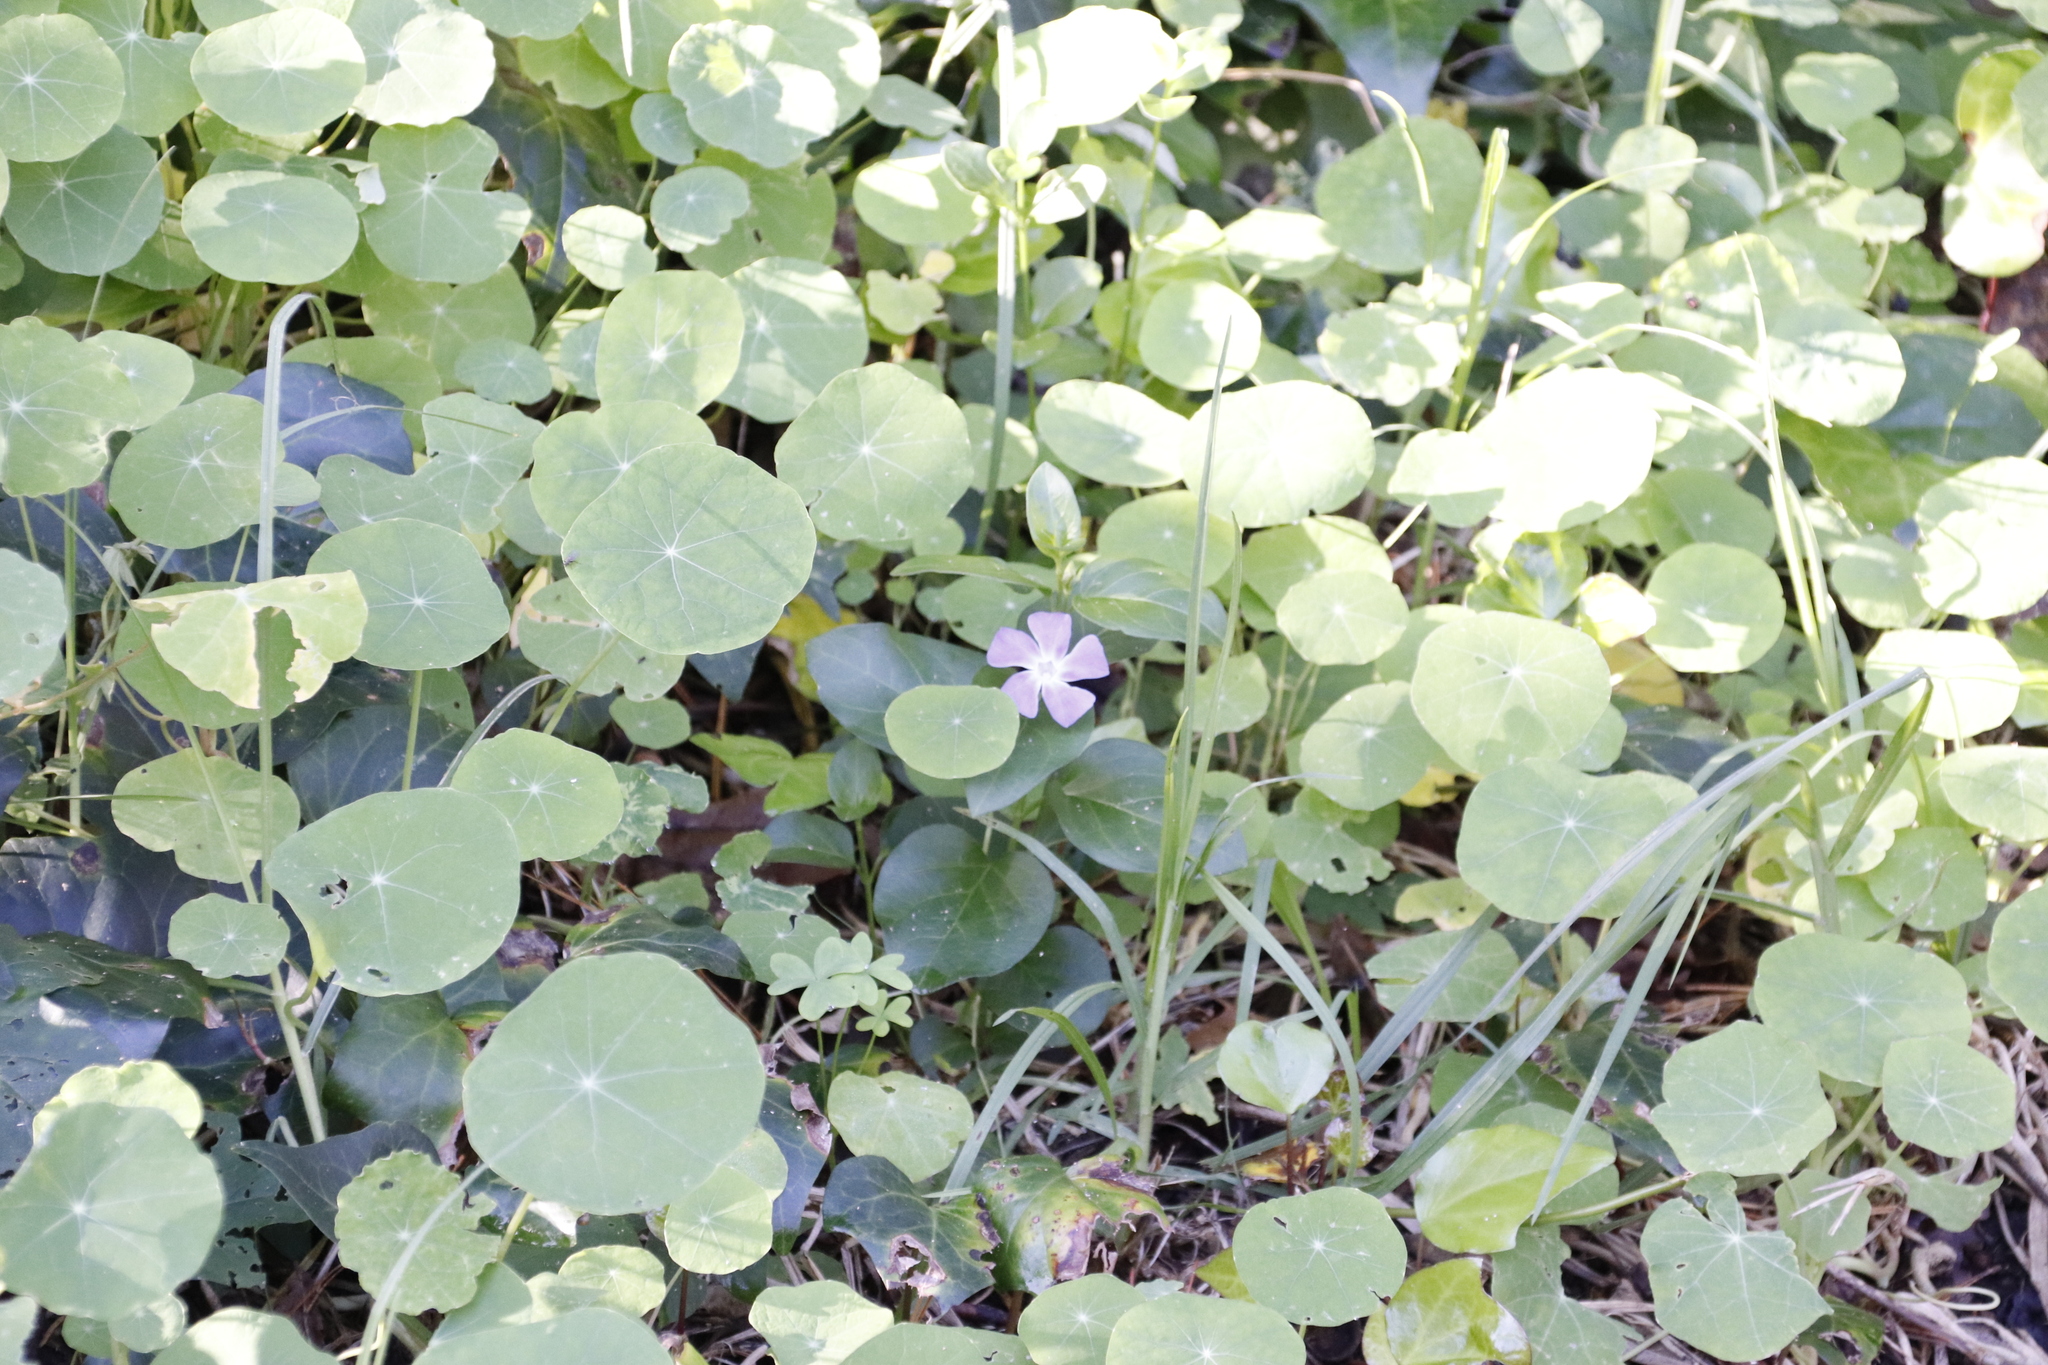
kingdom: Plantae
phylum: Tracheophyta
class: Magnoliopsida
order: Gentianales
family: Apocynaceae
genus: Vinca
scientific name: Vinca major
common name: Greater periwinkle
